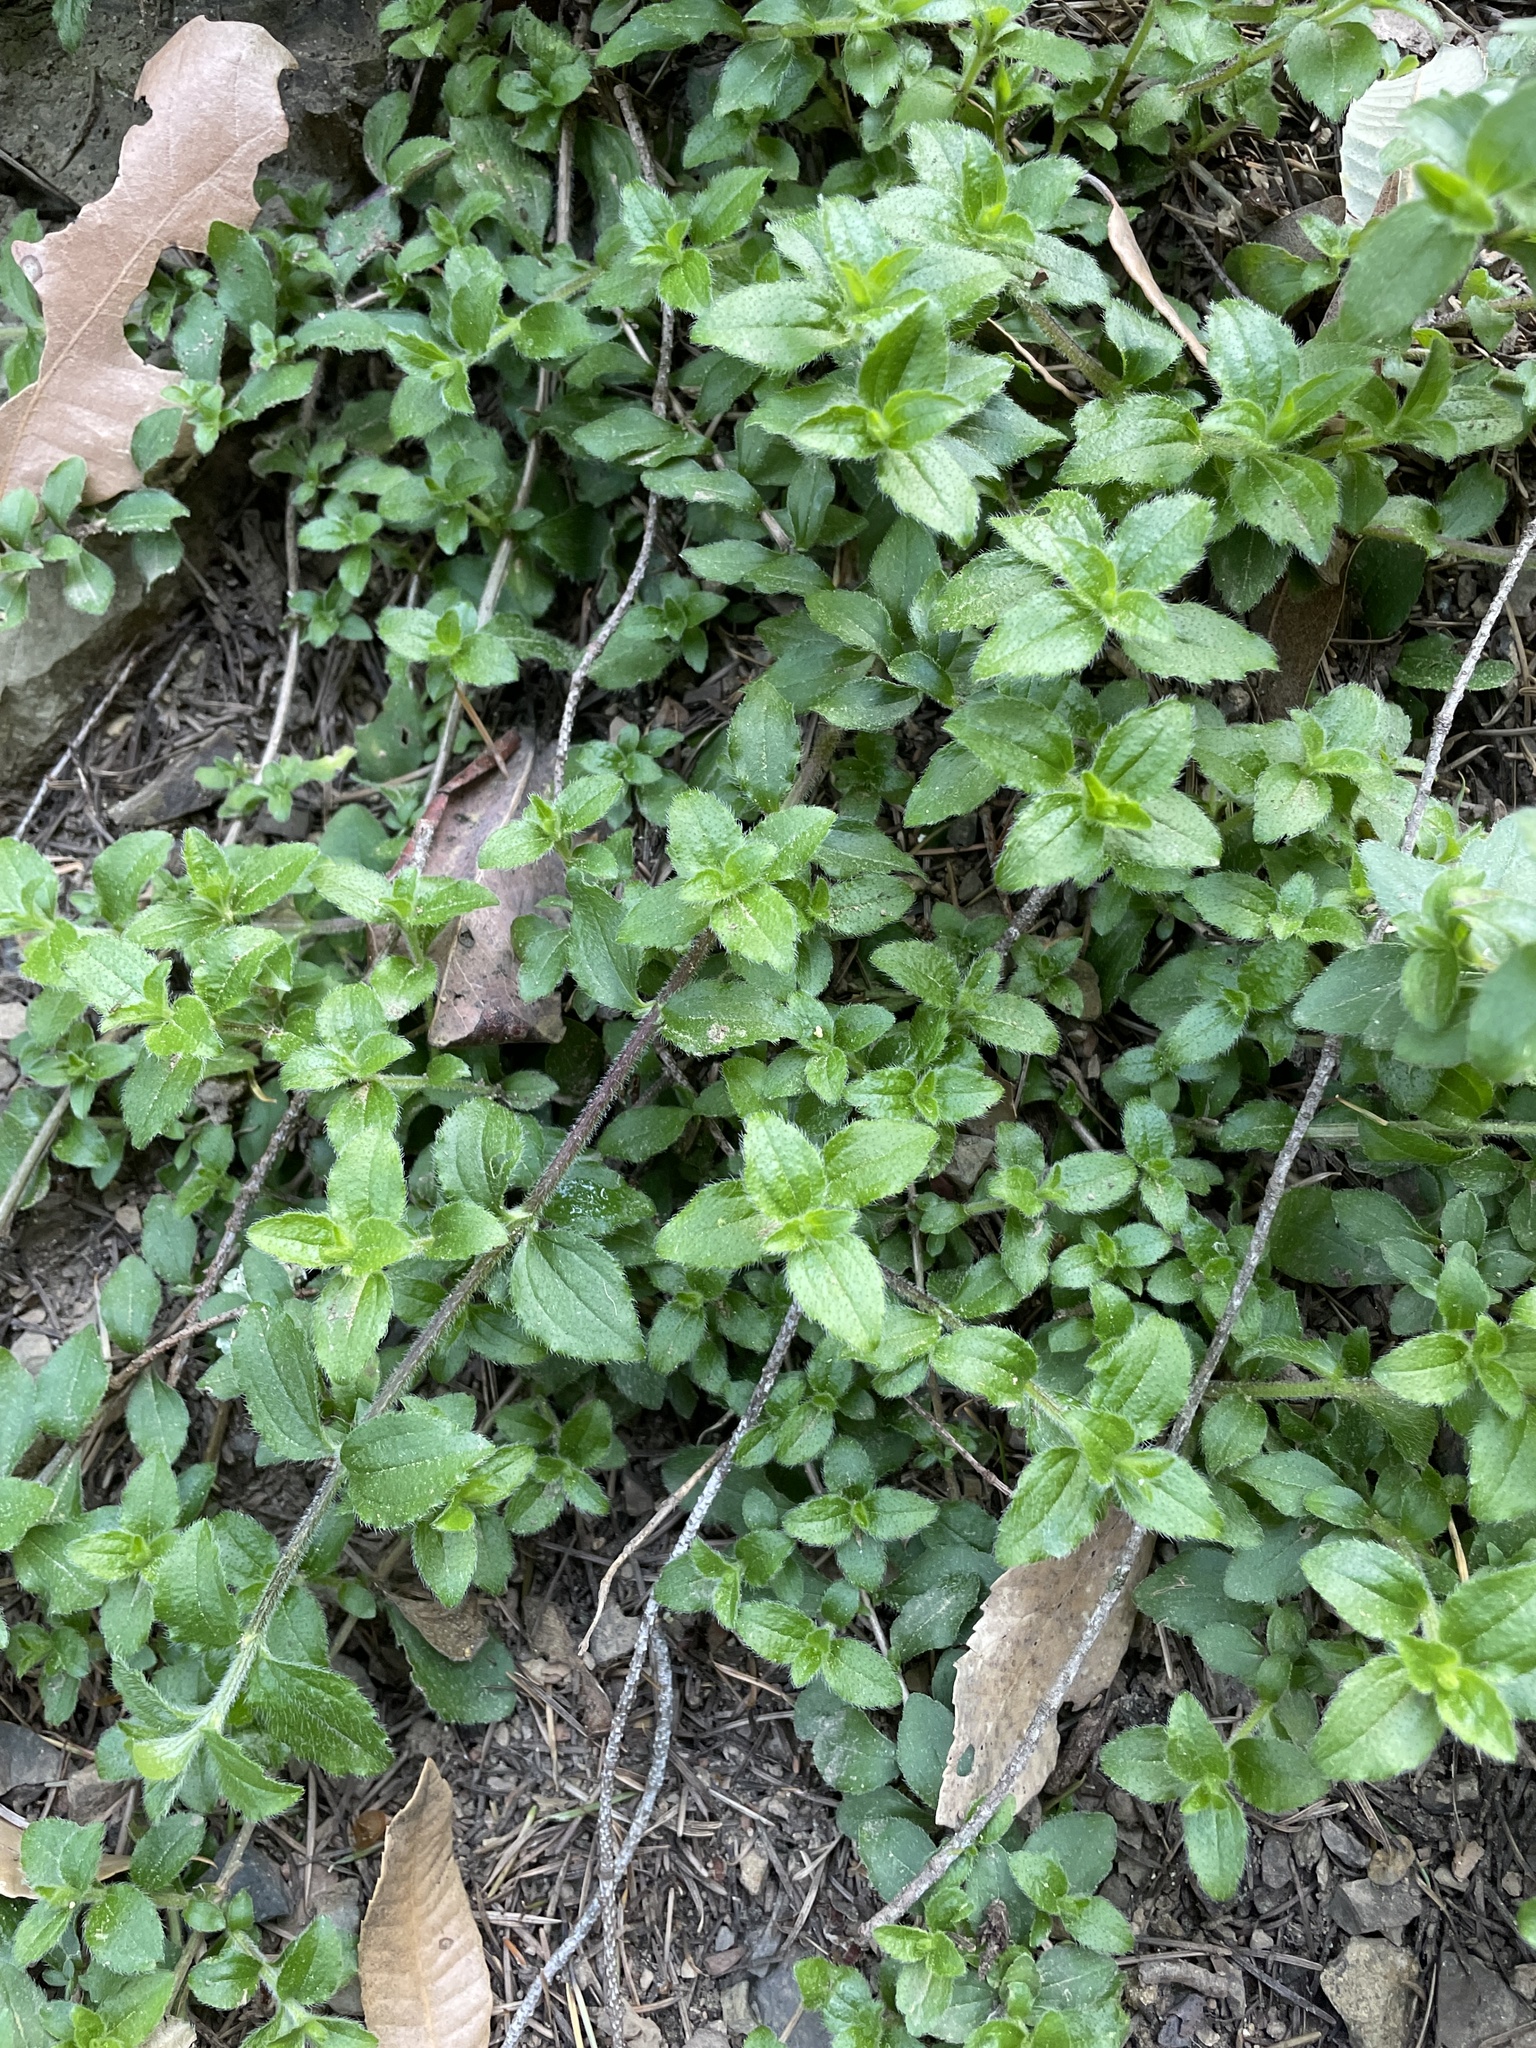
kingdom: Plantae
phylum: Tracheophyta
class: Magnoliopsida
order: Cornales
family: Hydrangeaceae
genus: Whipplea
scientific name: Whipplea modesta
